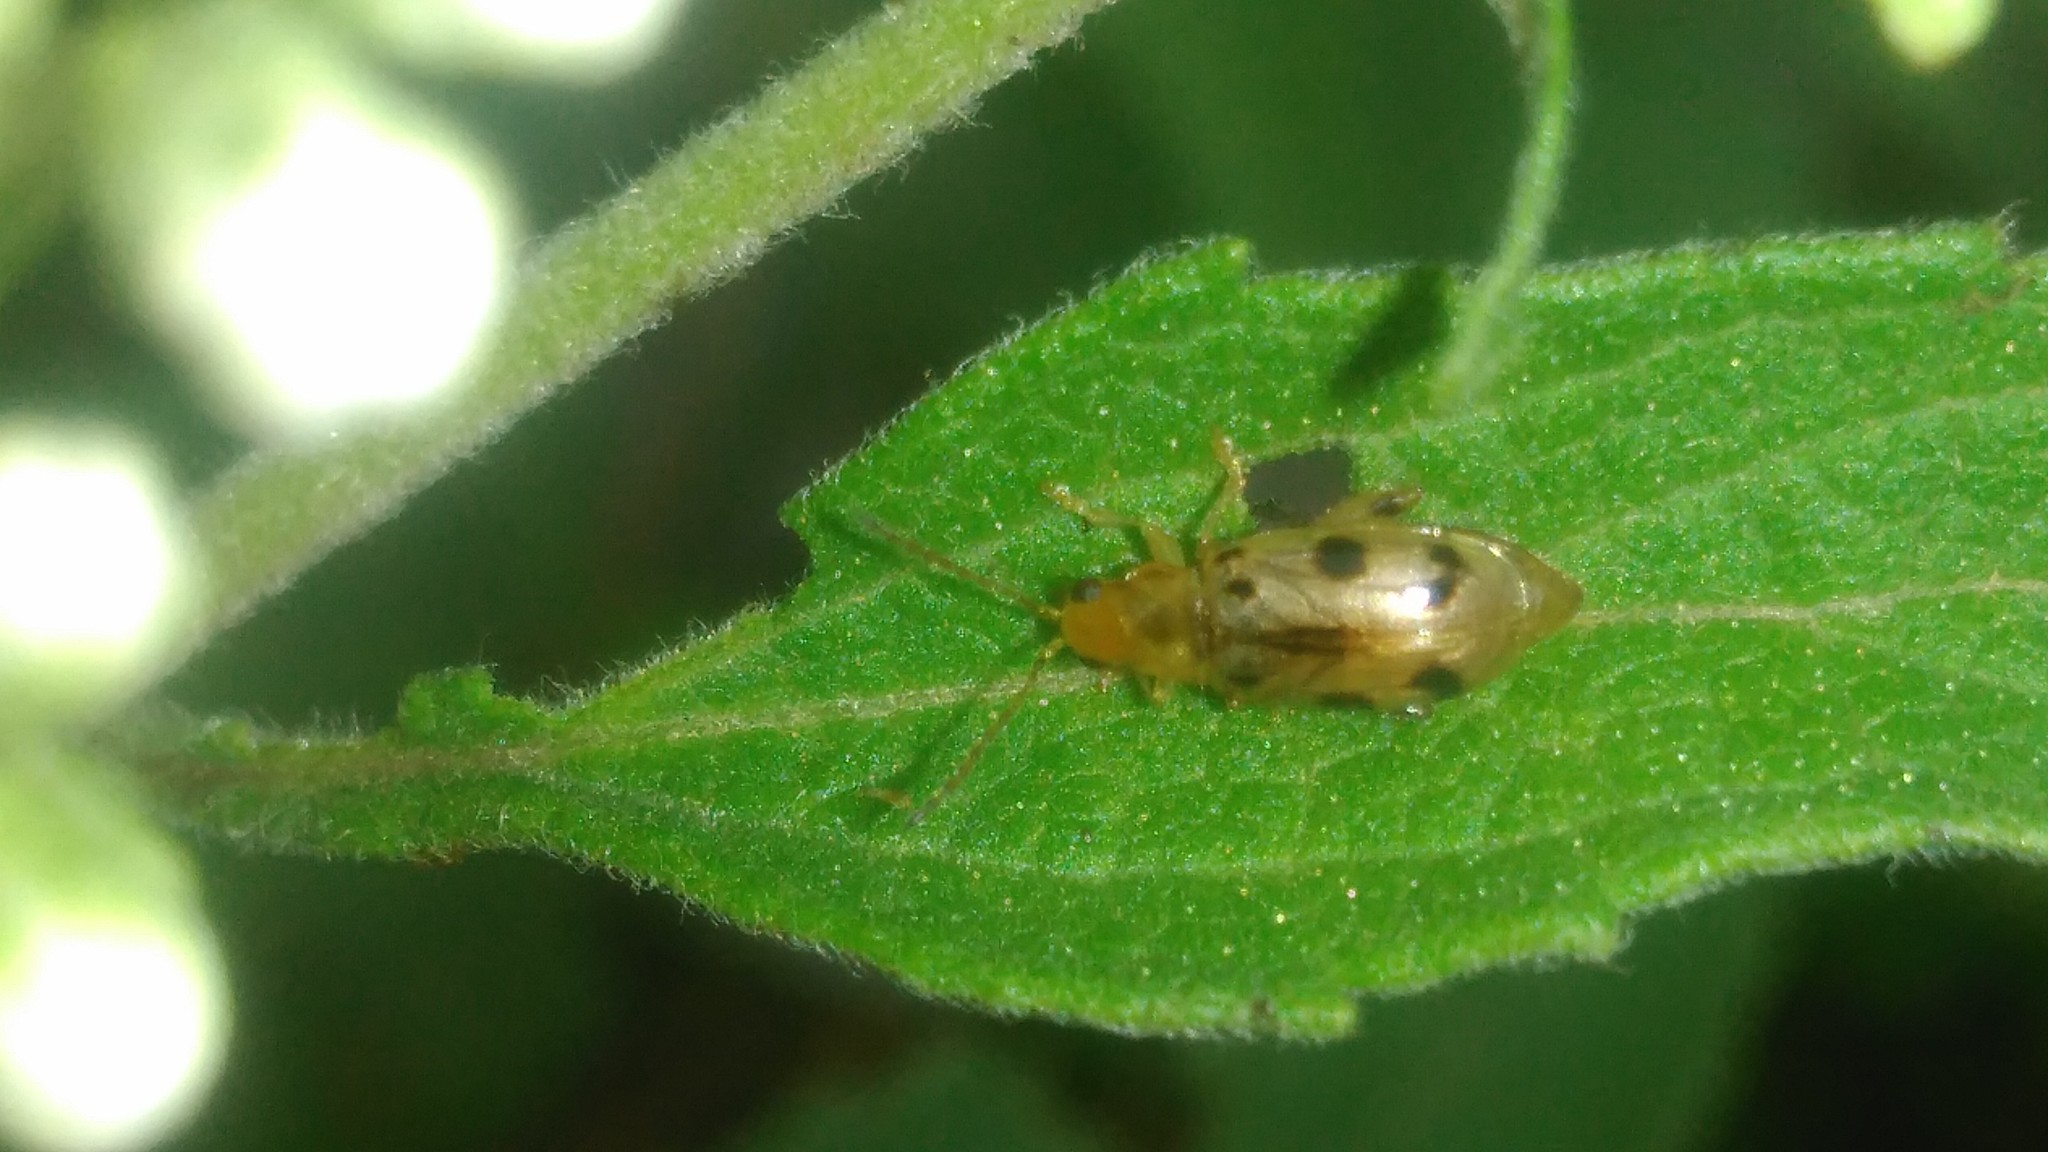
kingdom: Animalia
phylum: Arthropoda
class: Insecta
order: Coleoptera
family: Chrysomelidae
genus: Systena
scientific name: Systena
